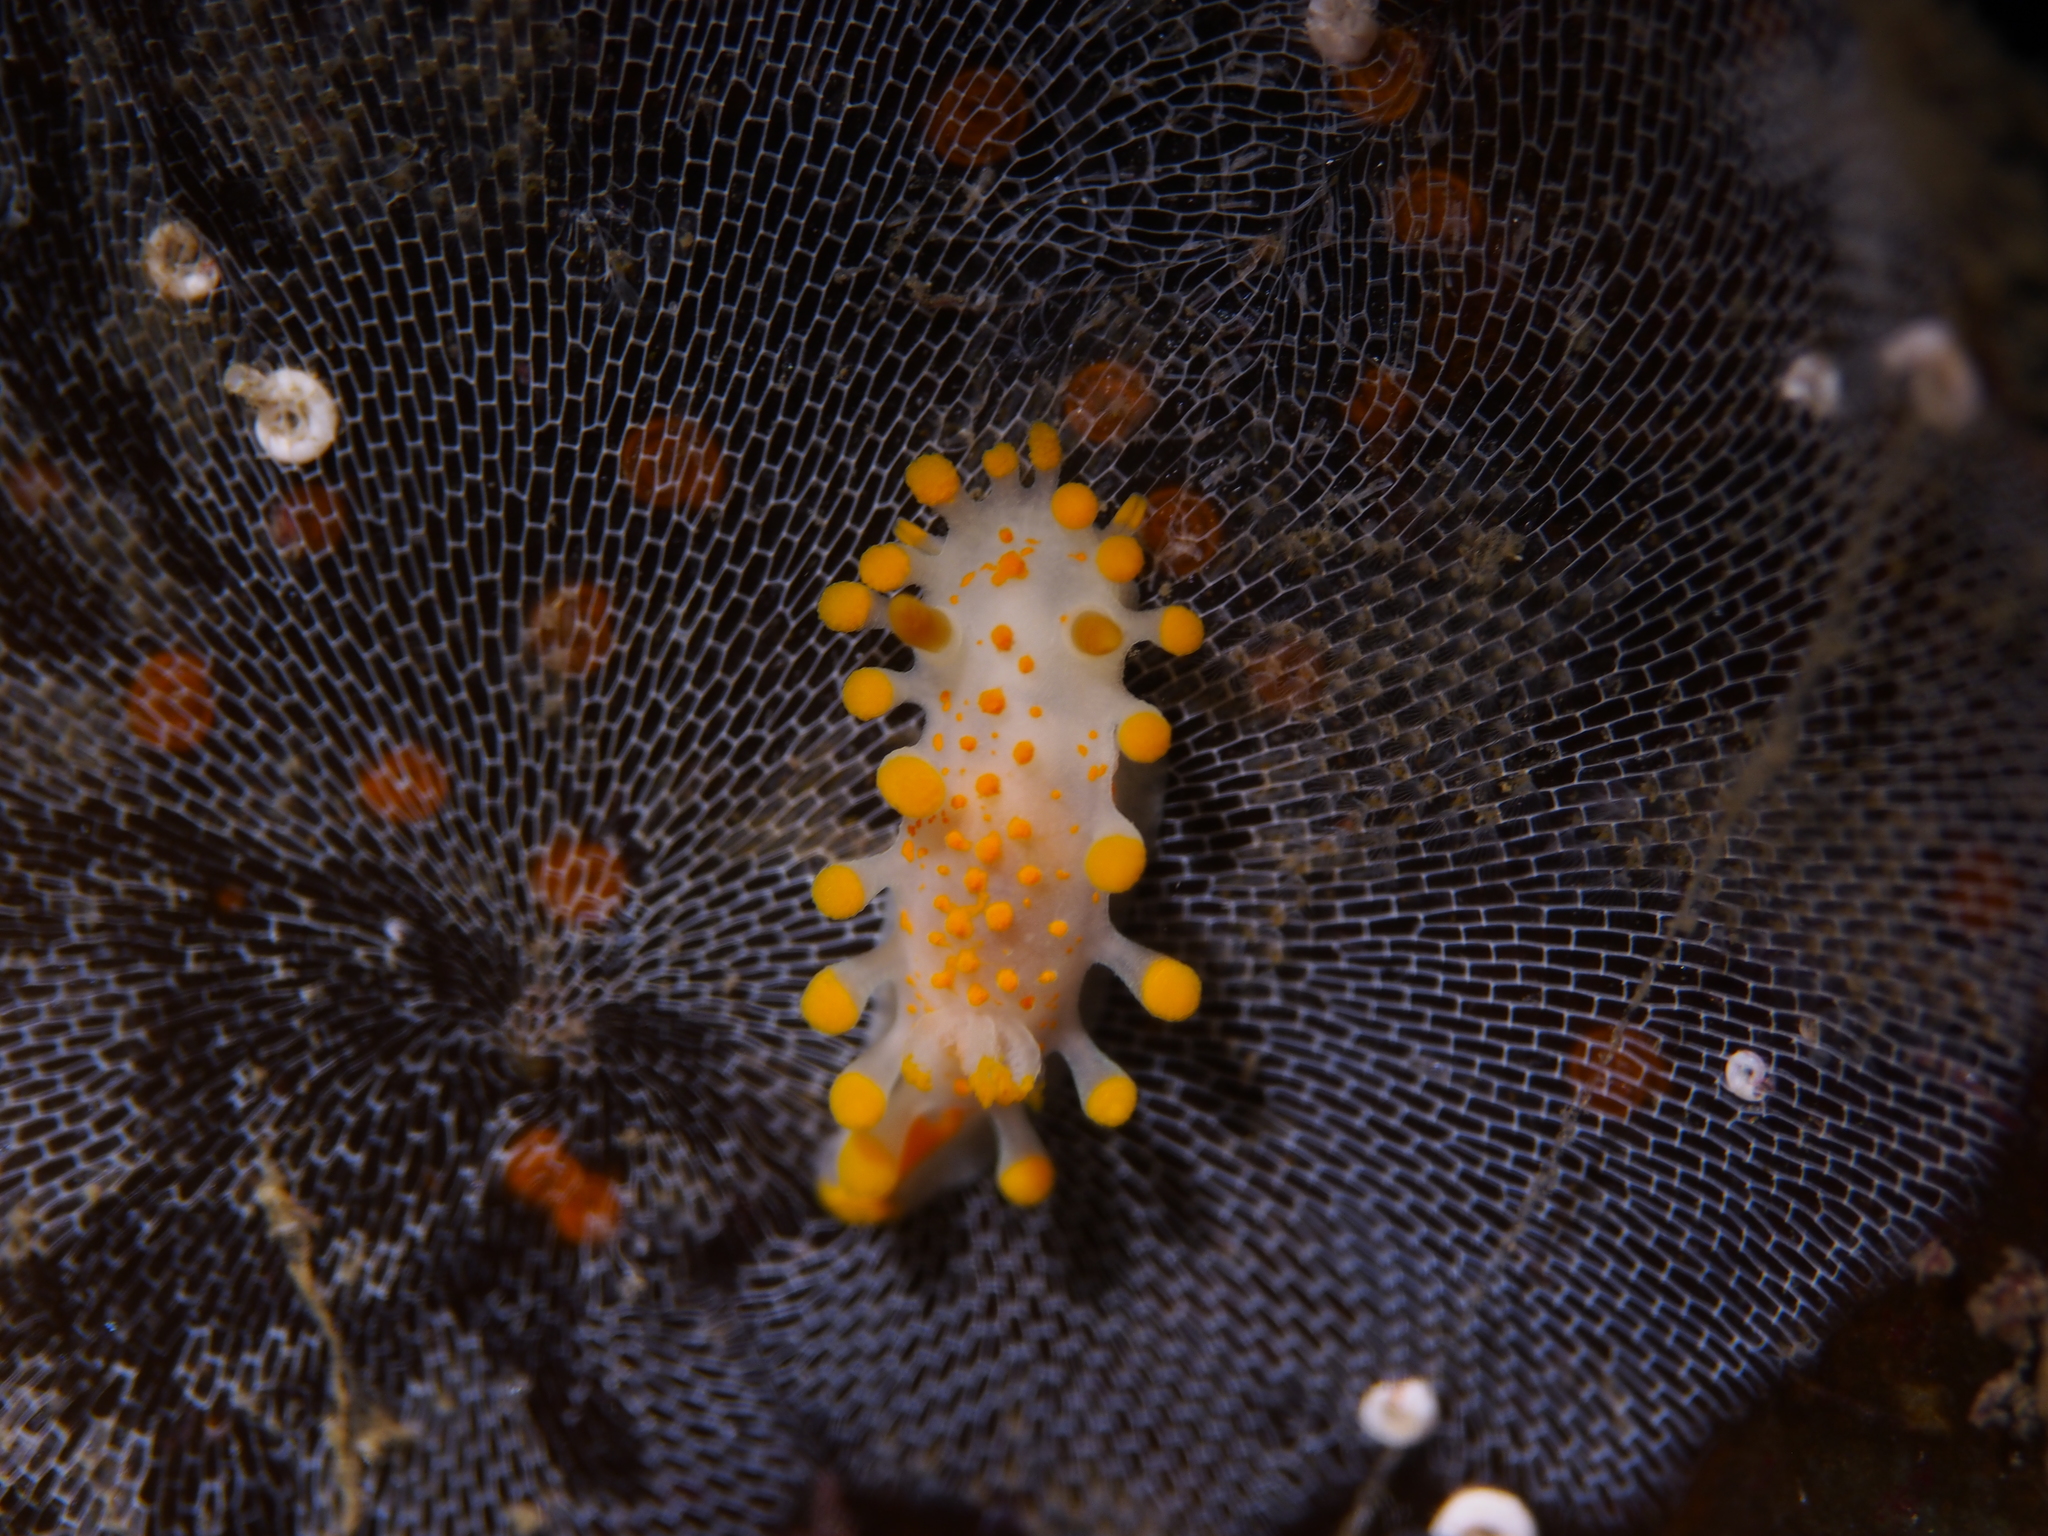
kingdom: Animalia
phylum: Mollusca
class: Gastropoda
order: Nudibranchia
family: Polyceridae
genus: Limacia
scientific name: Limacia clavigera
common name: Orange-clubbed sea slug
